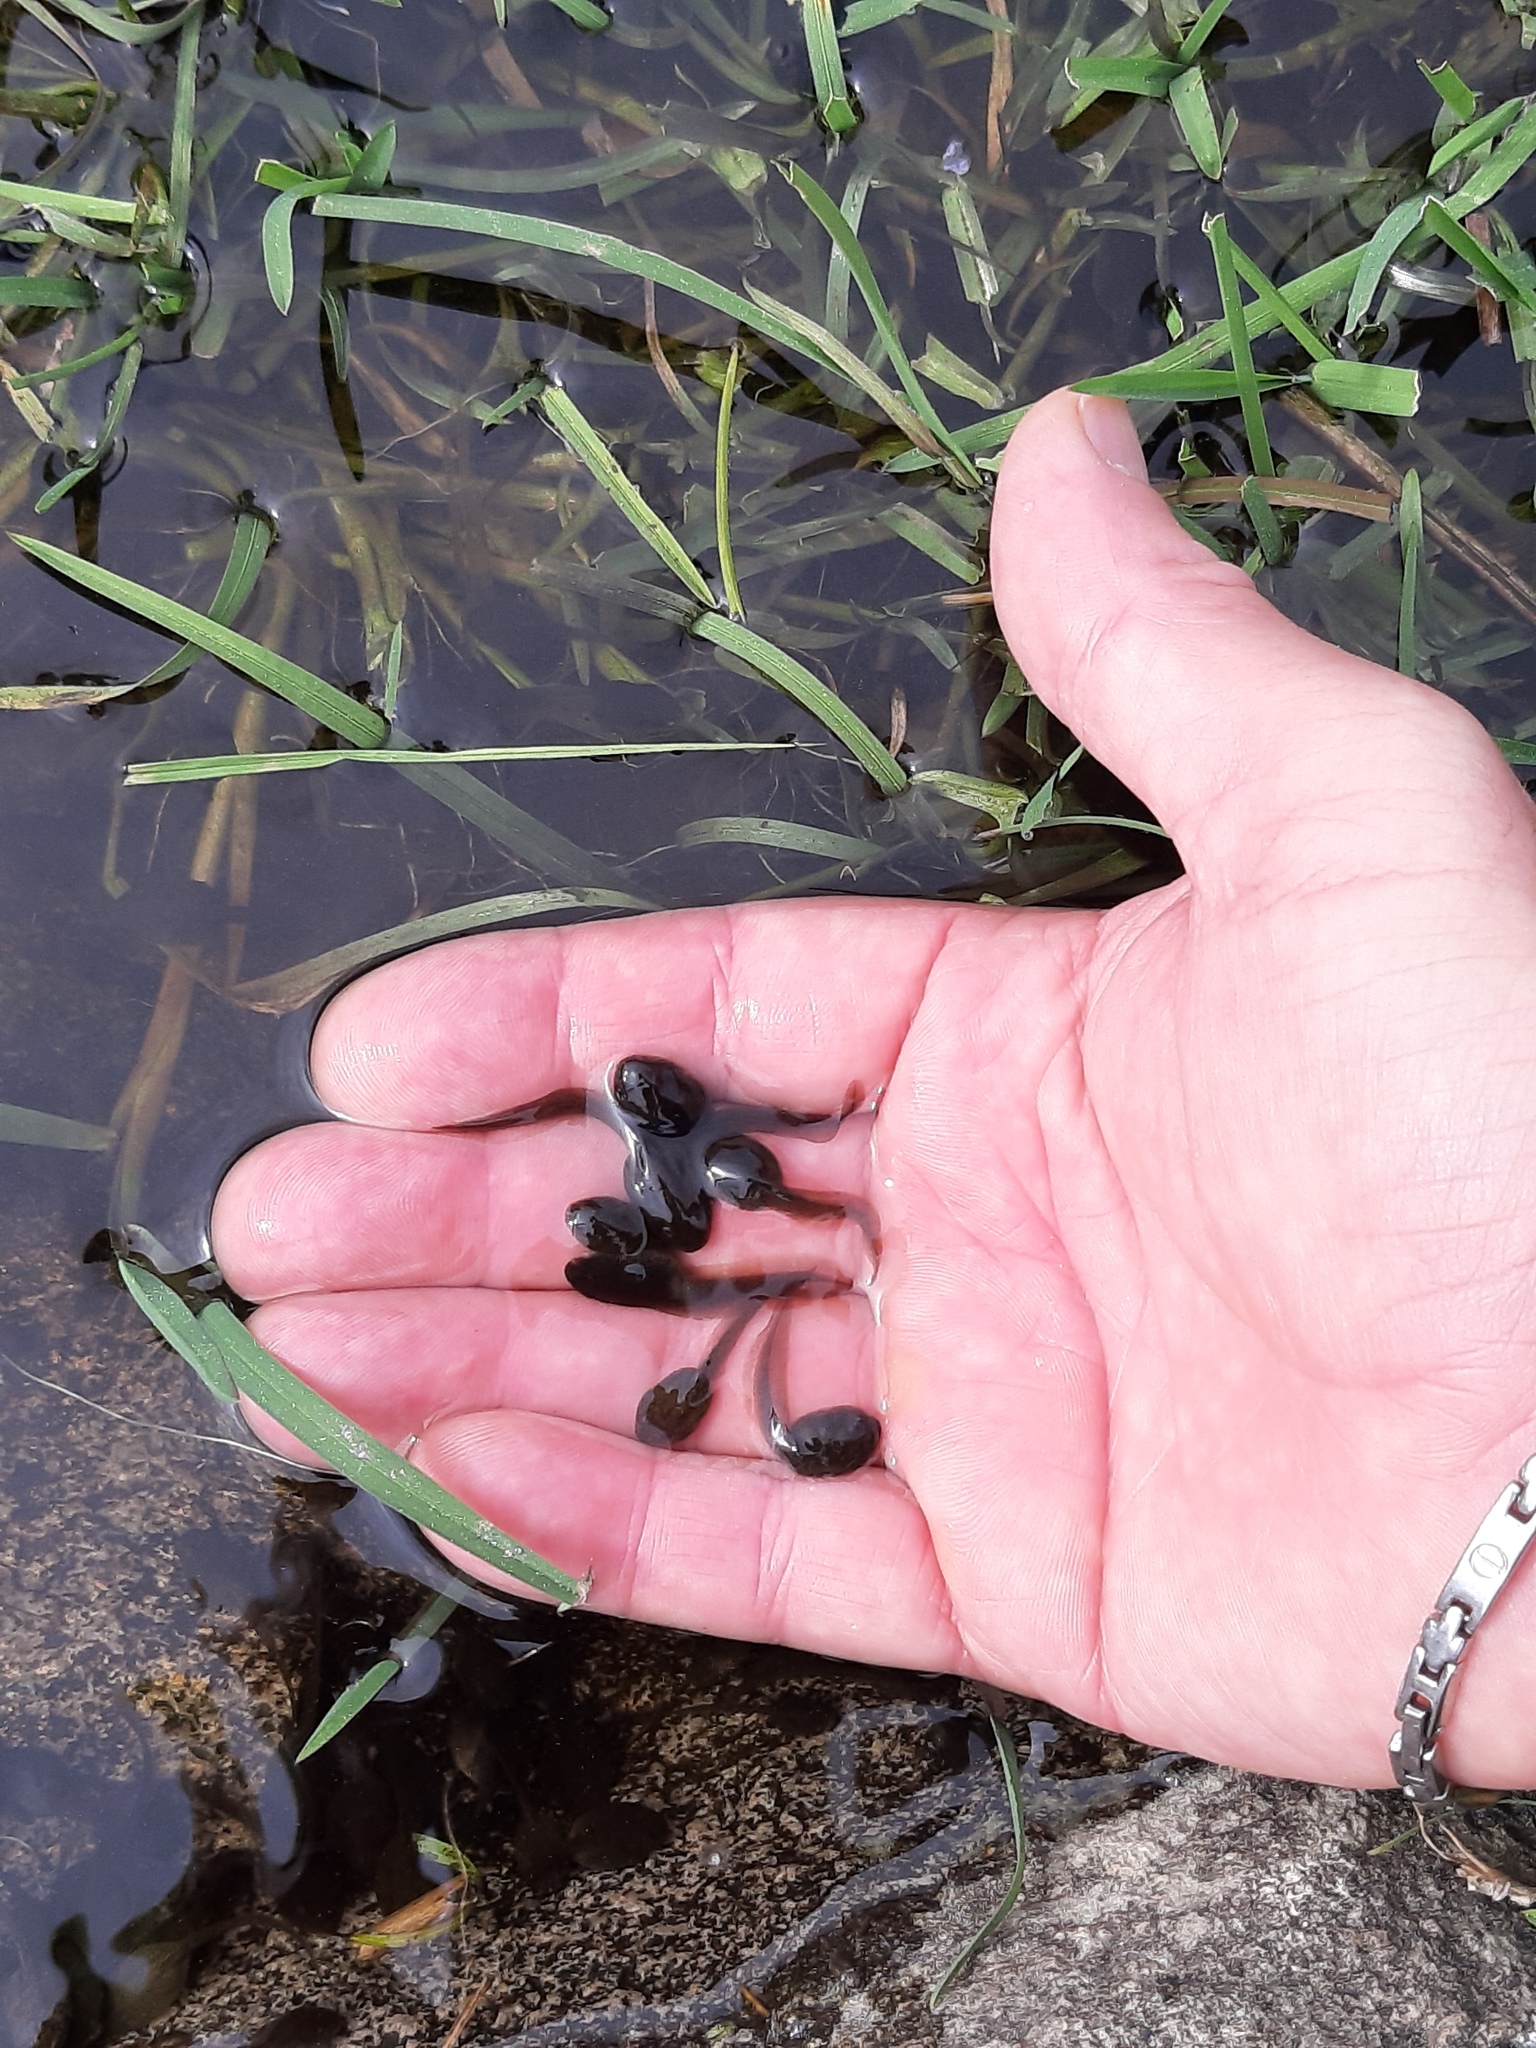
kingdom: Animalia
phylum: Chordata
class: Amphibia
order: Anura
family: Ranidae
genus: Rana
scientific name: Rana temporaria
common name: Common frog
